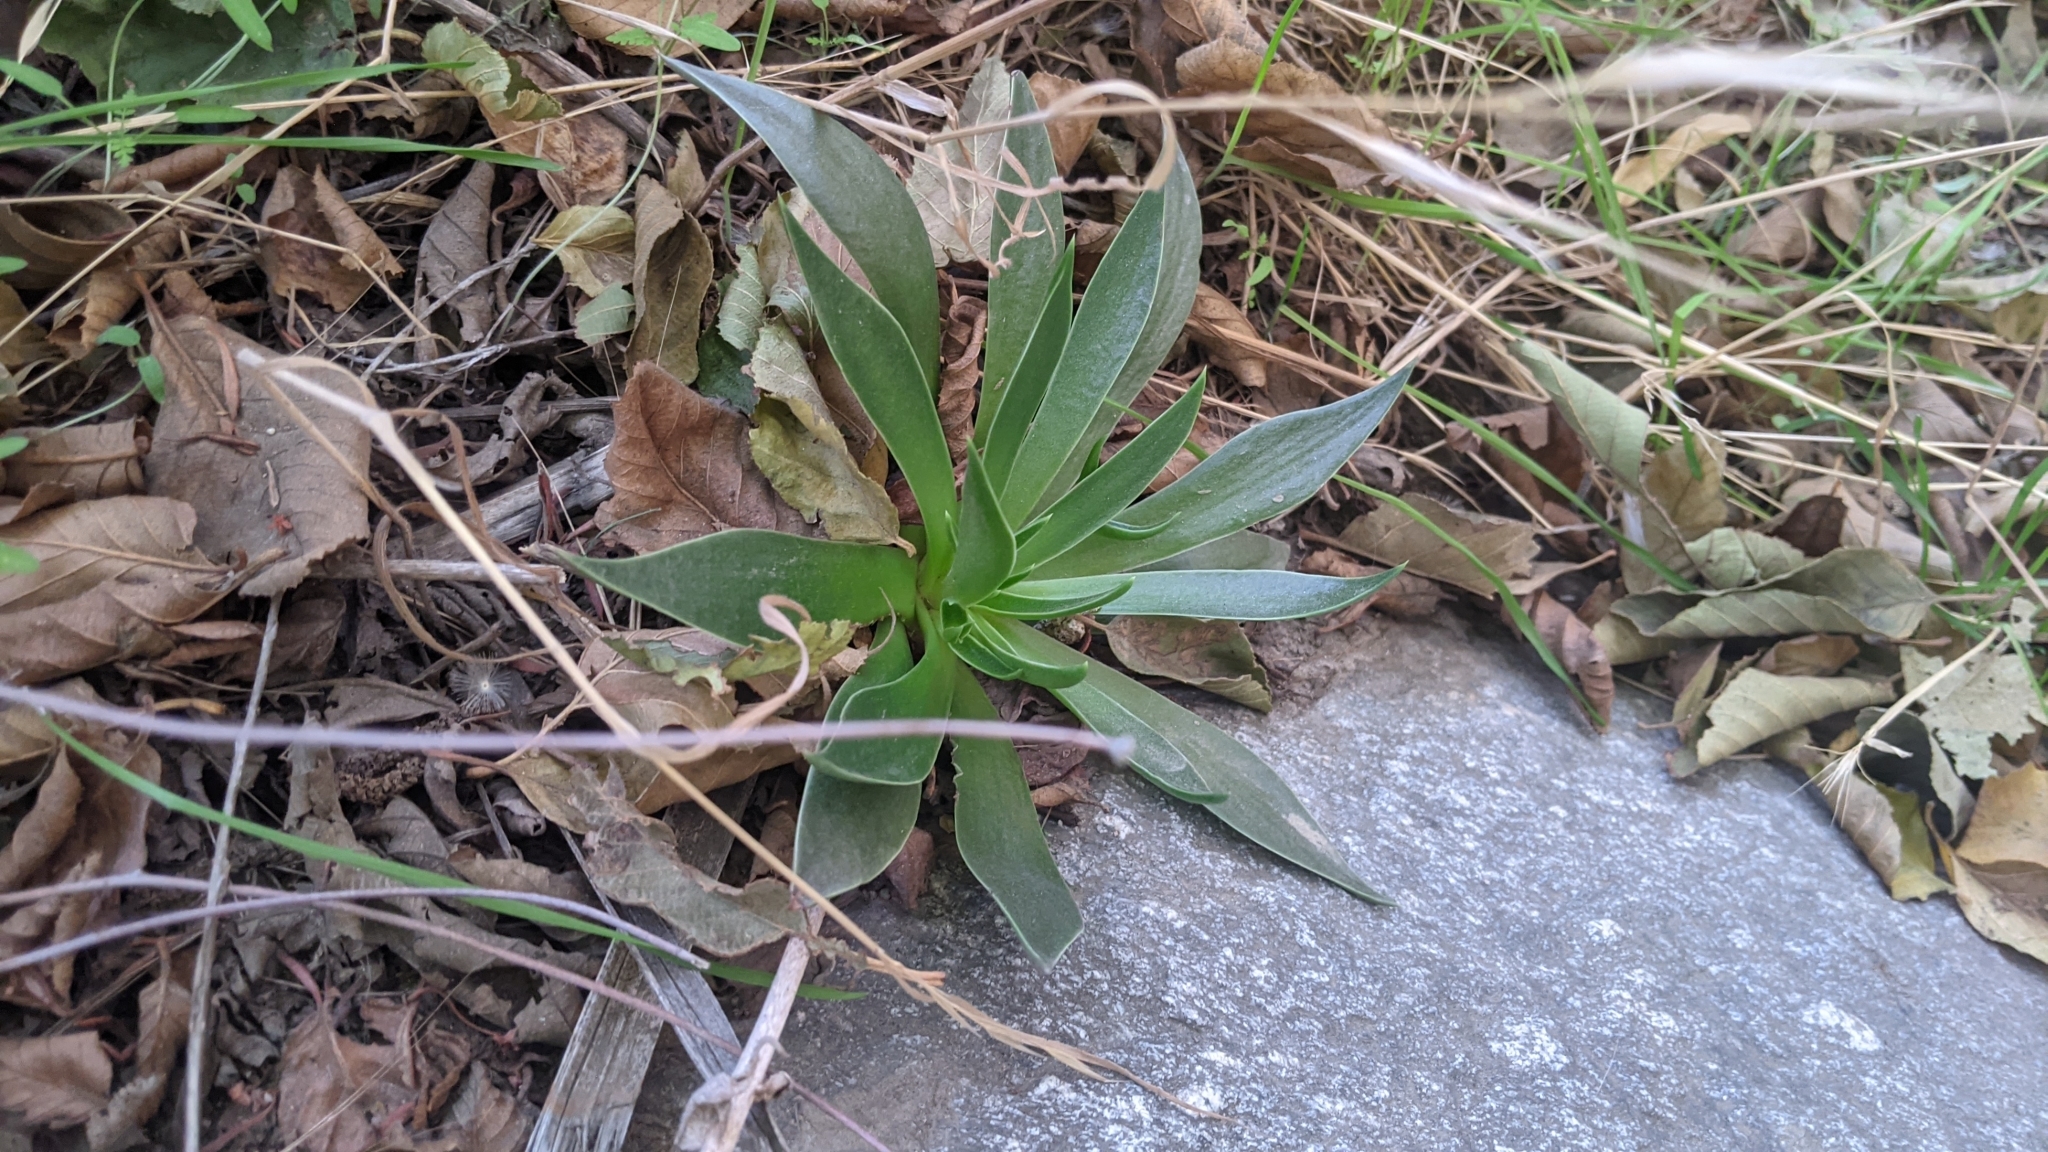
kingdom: Plantae
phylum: Tracheophyta
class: Magnoliopsida
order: Saxifragales
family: Crassulaceae
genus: Dudleya
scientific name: Dudleya lanceolata
